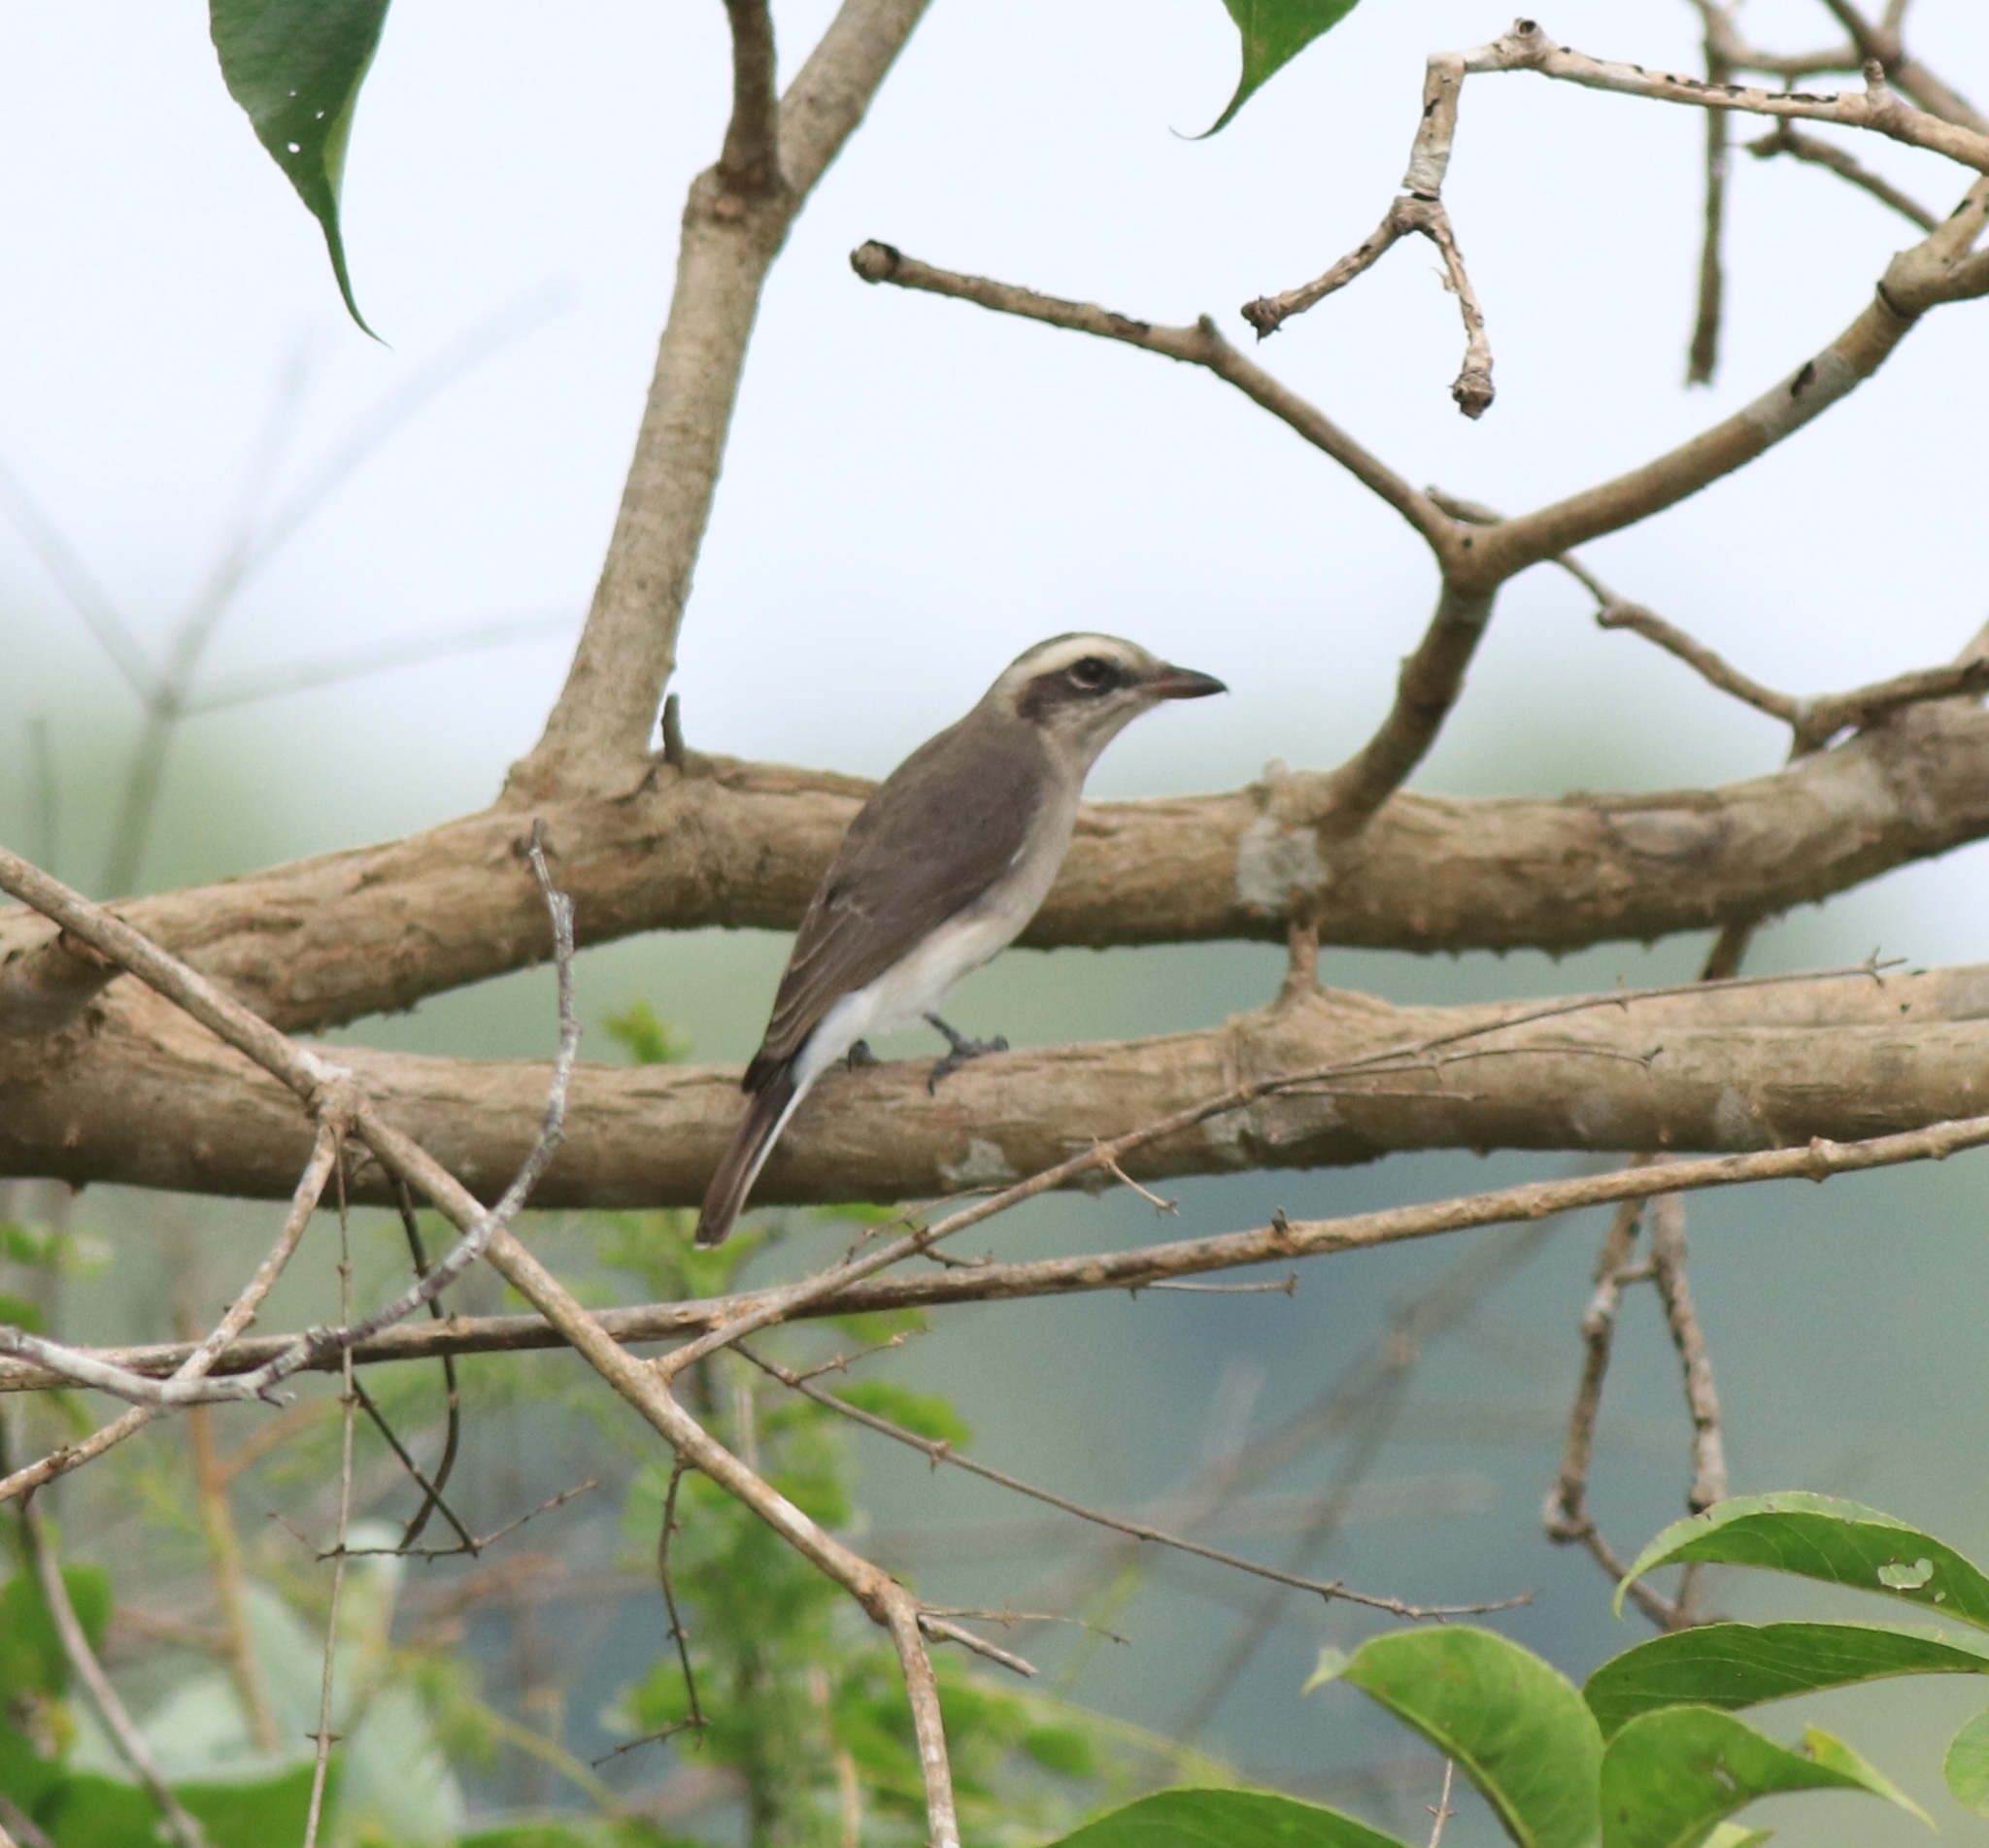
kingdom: Animalia
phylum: Chordata
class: Aves
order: Passeriformes
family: Tephrodornithidae
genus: Tephrodornis
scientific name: Tephrodornis pondicerianus
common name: Common woodshrike
